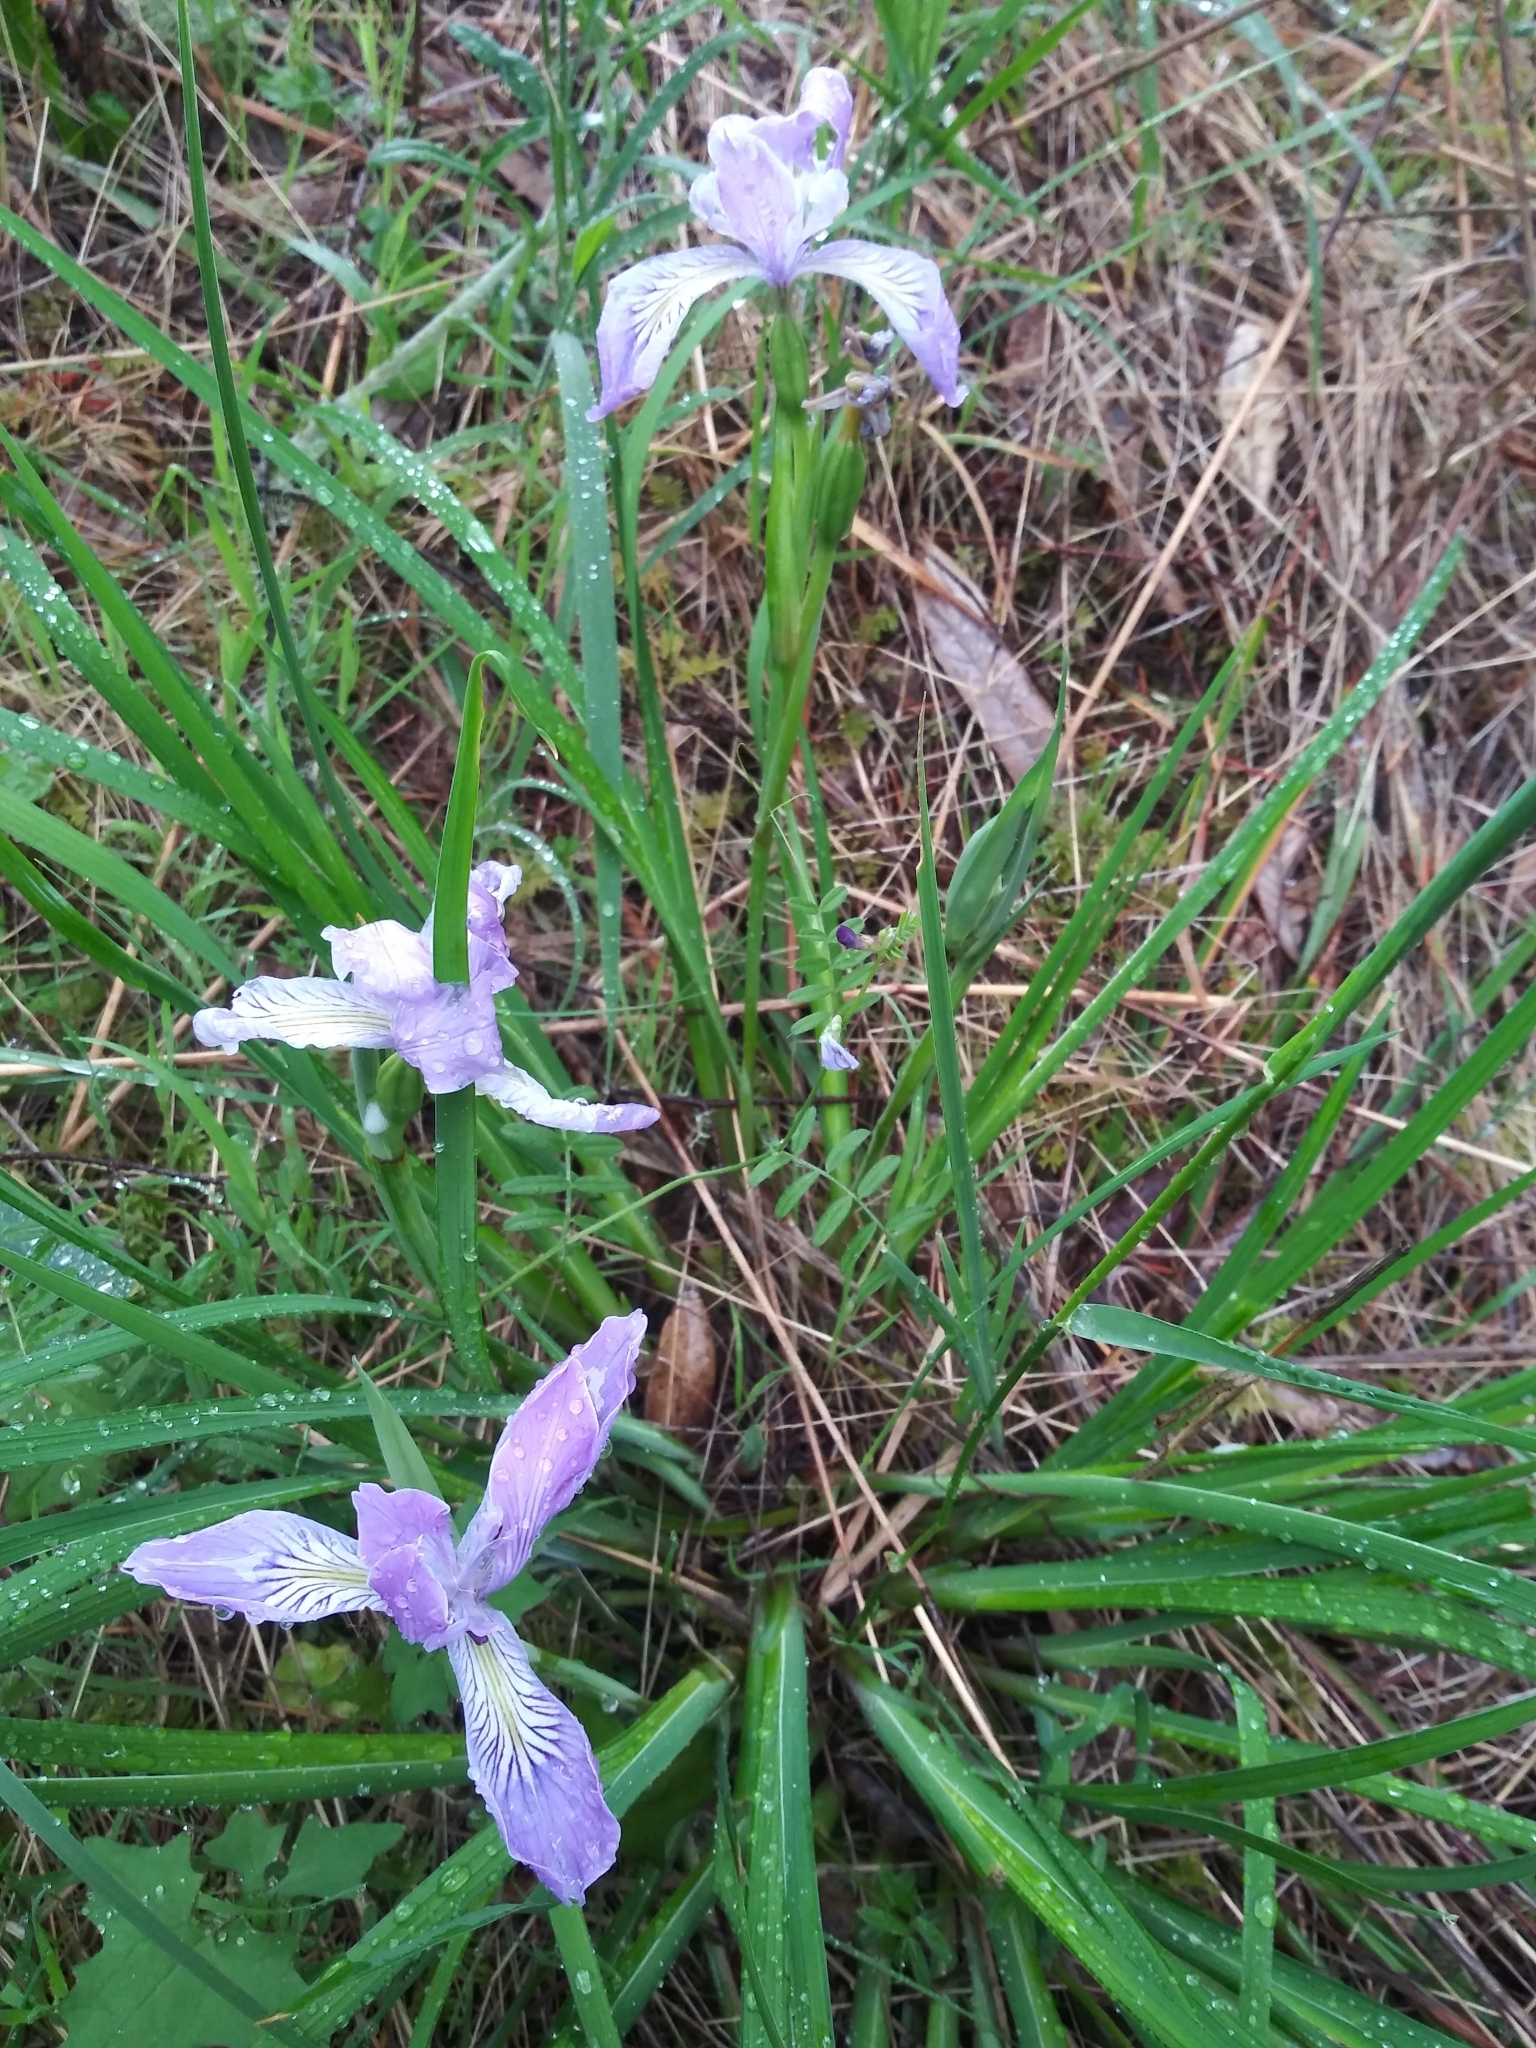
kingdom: Plantae
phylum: Tracheophyta
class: Liliopsida
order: Asparagales
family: Iridaceae
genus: Iris
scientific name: Iris tenax
